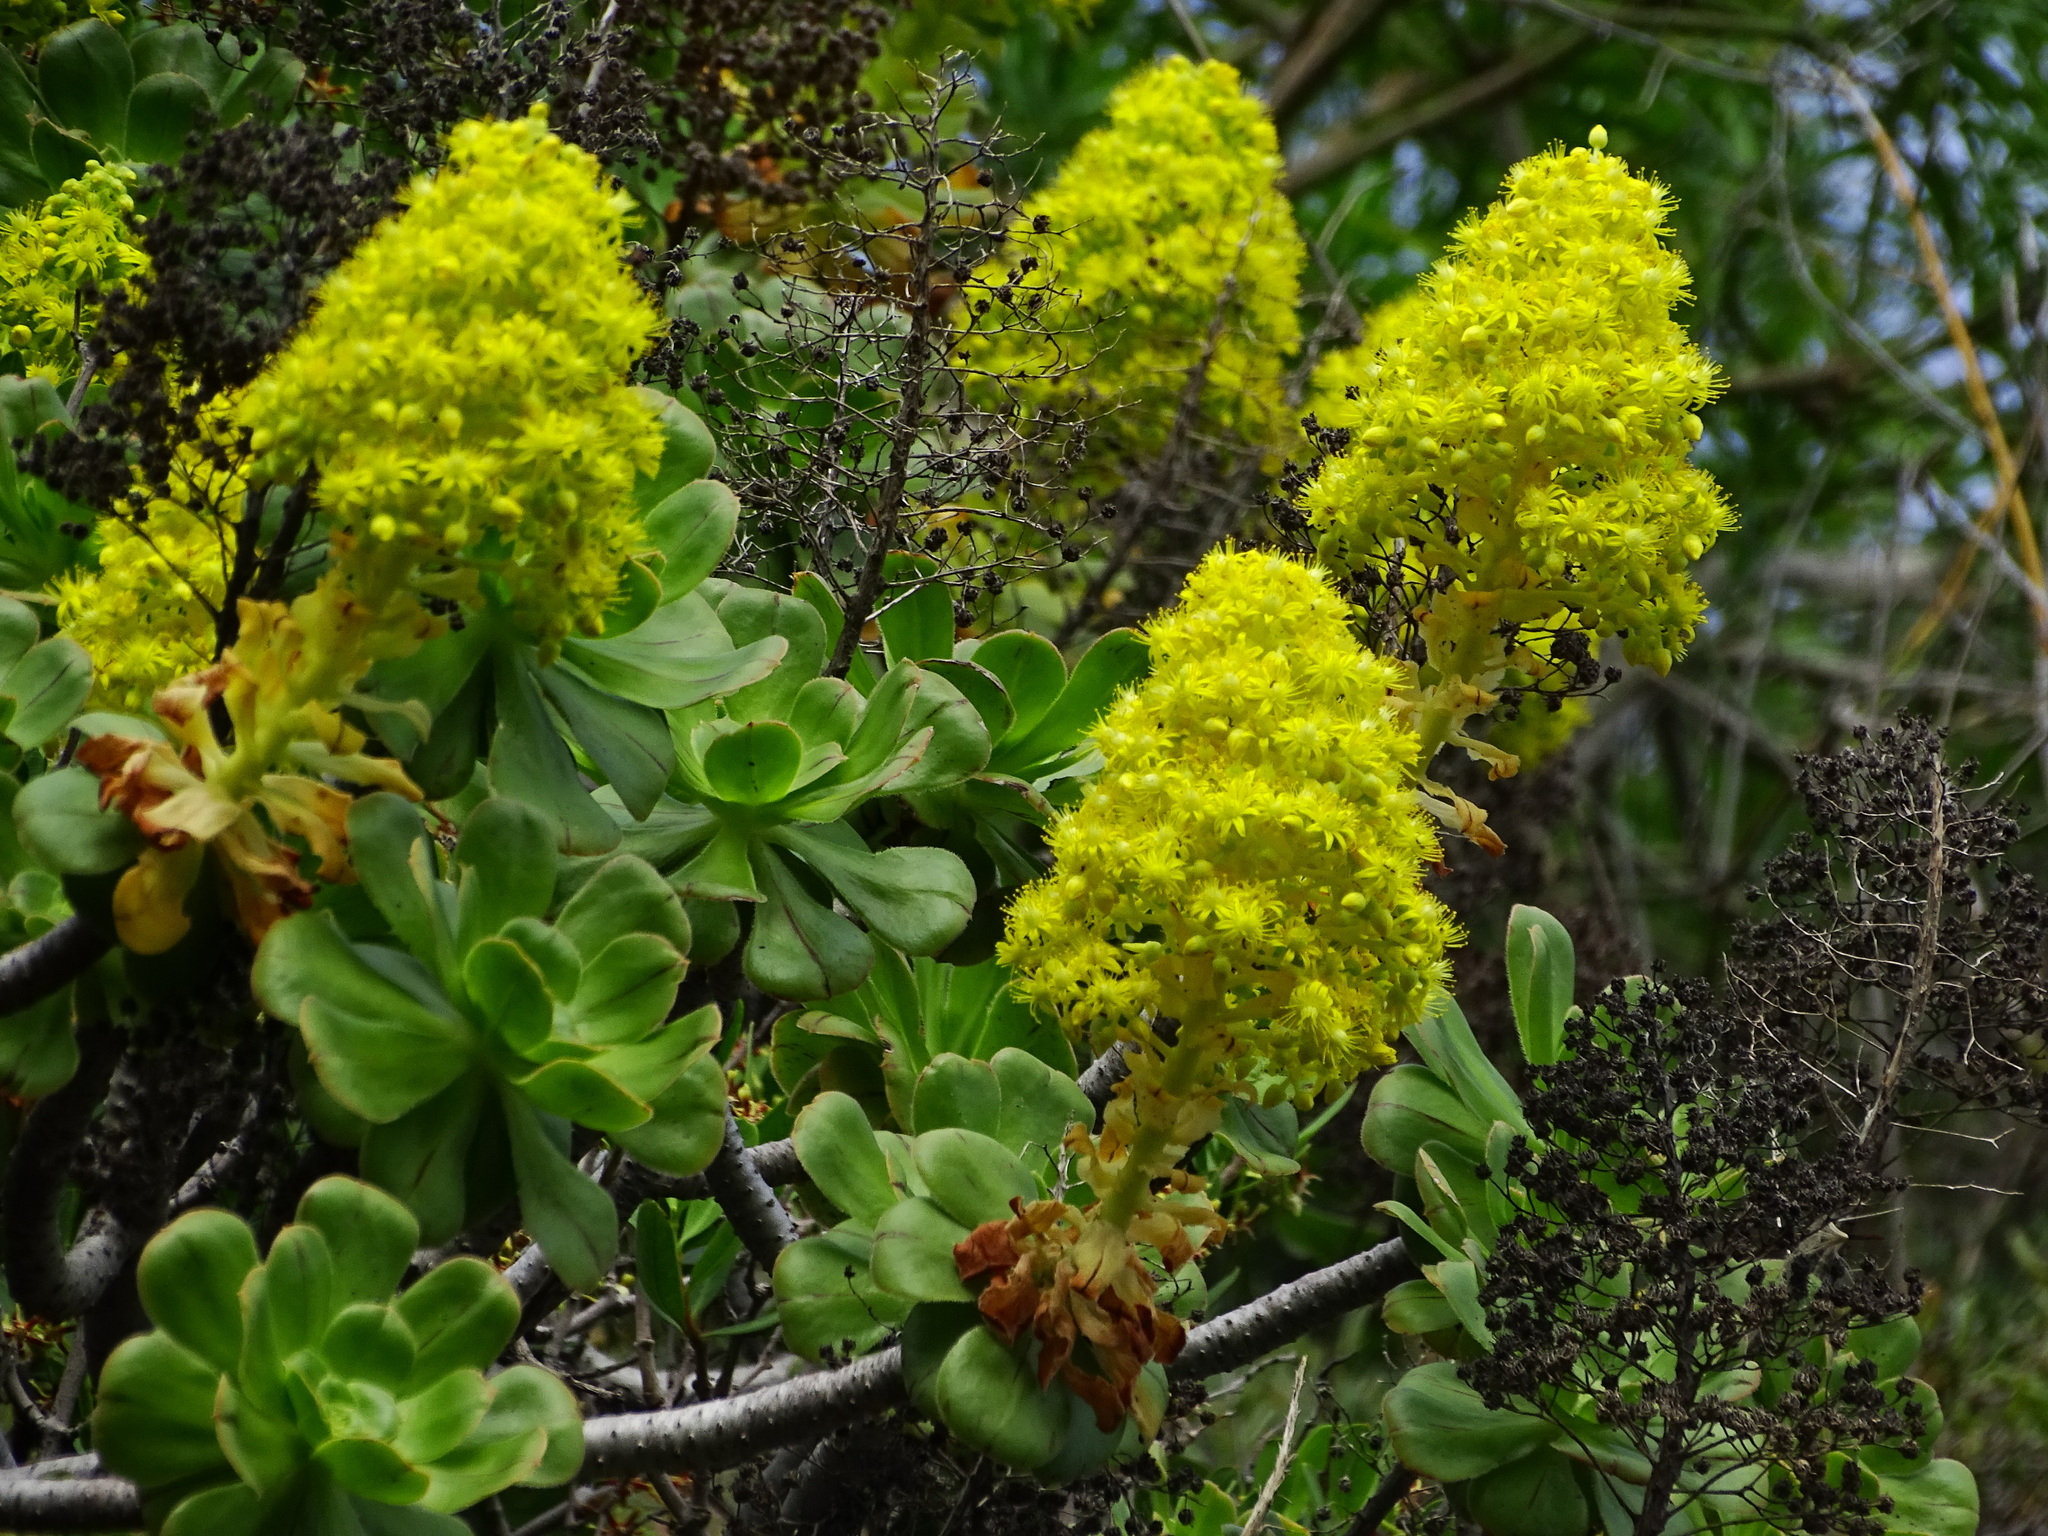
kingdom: Plantae
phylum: Tracheophyta
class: Magnoliopsida
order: Saxifragales
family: Crassulaceae
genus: Aeonium
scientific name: Aeonium arboreum
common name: Tree aeonium
